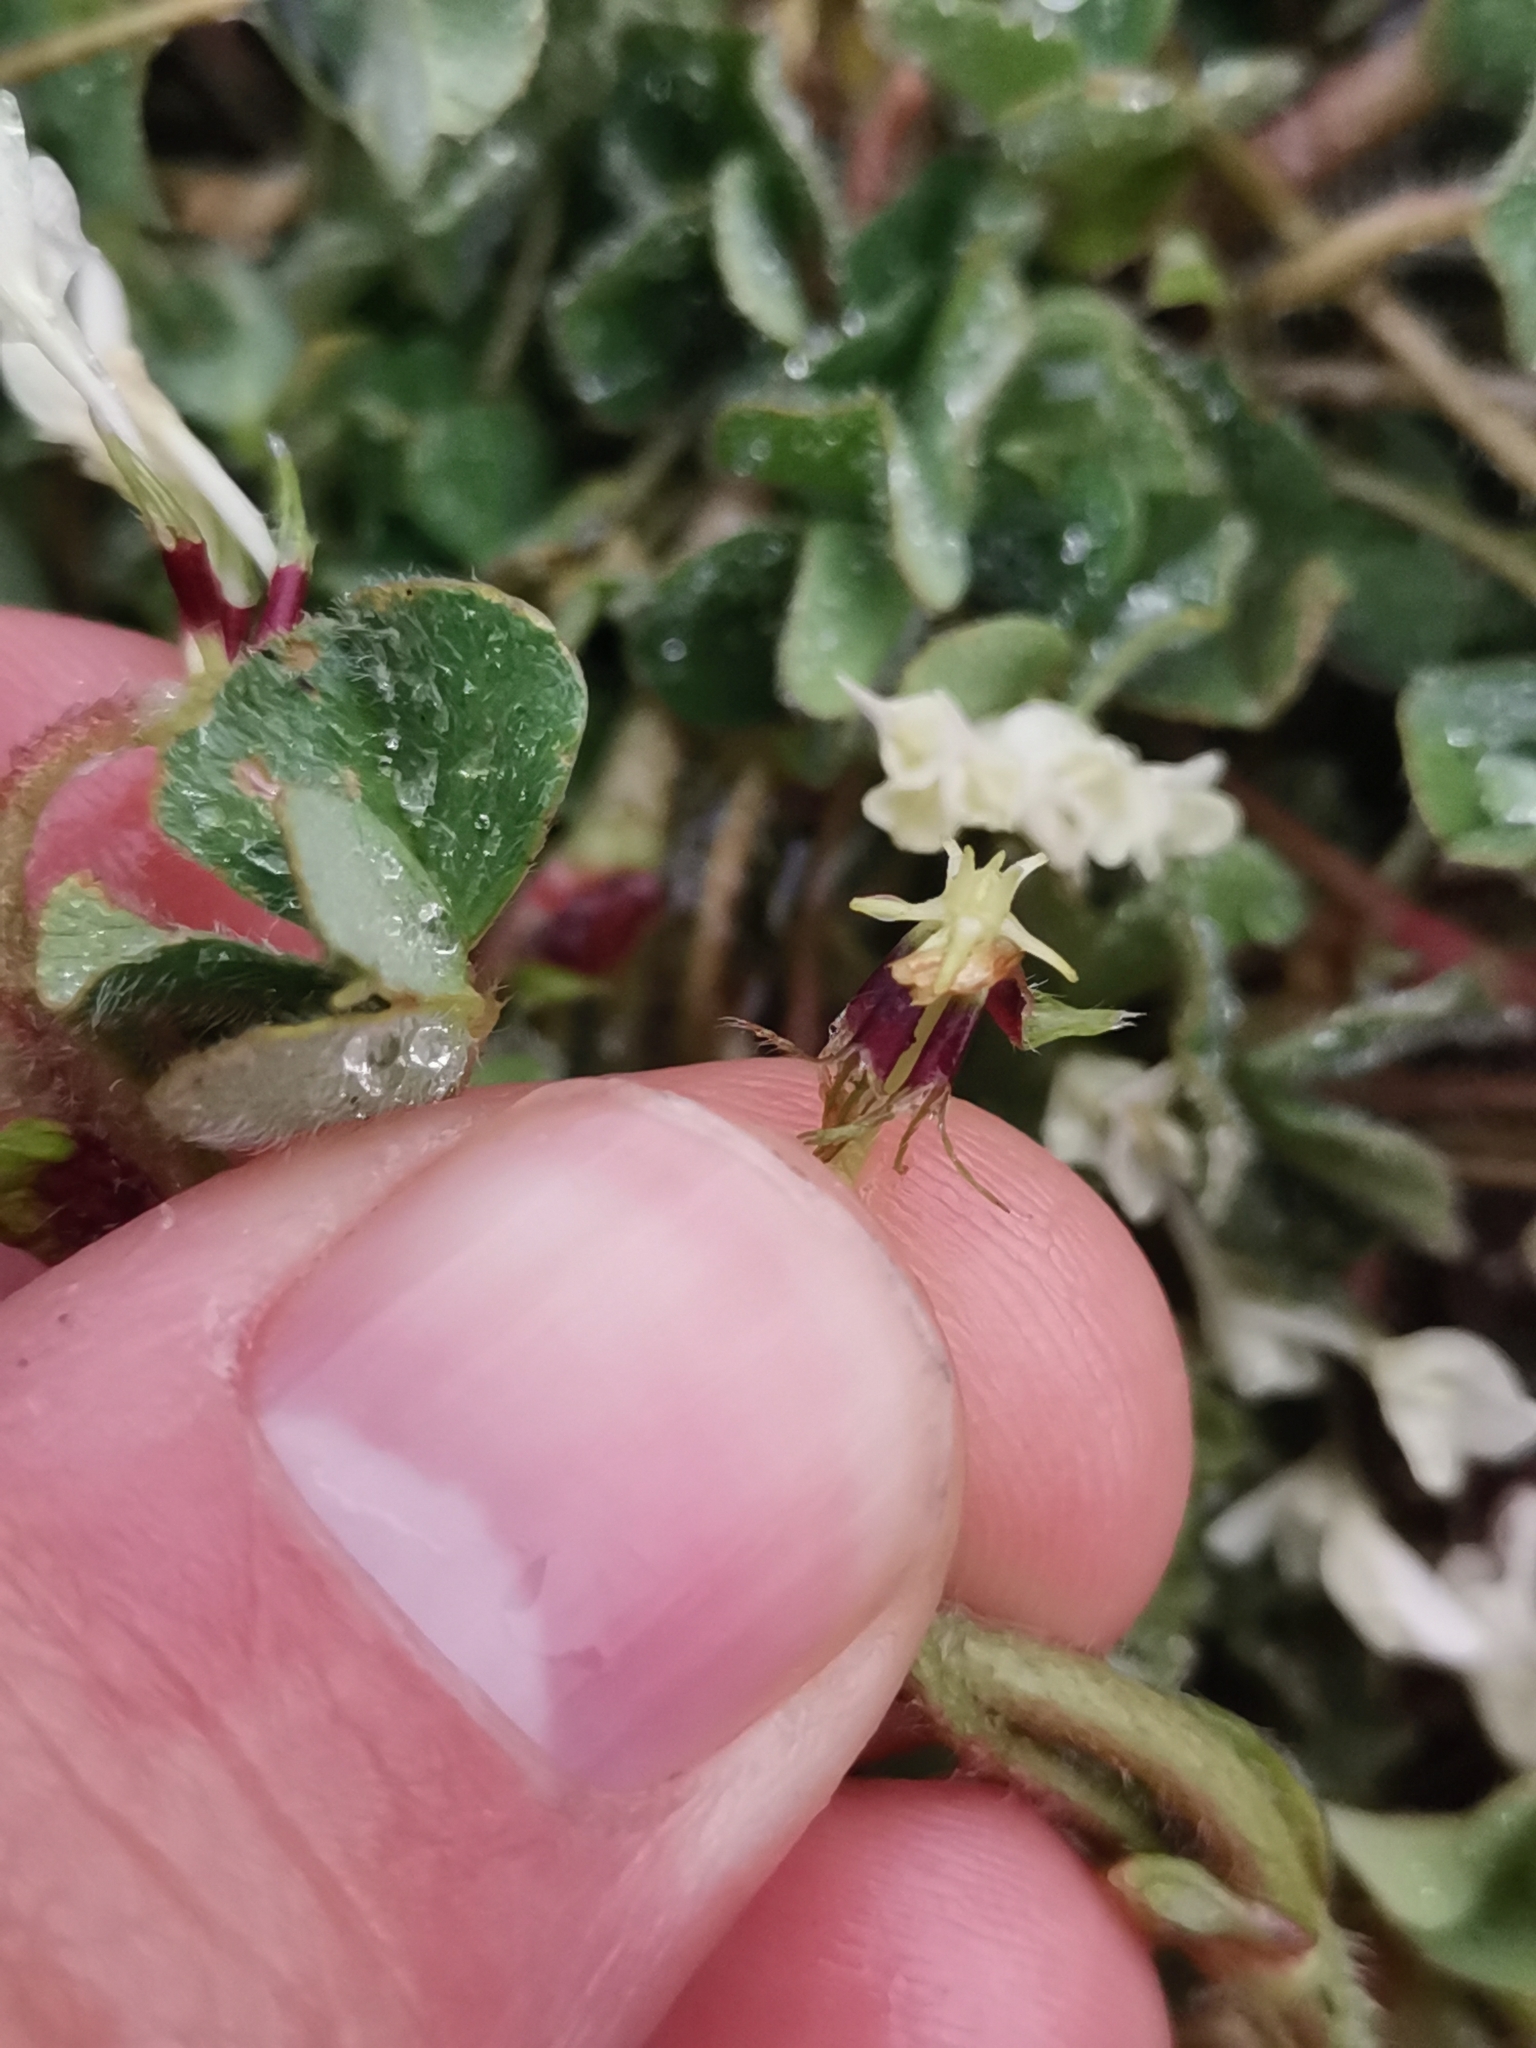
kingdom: Plantae
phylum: Tracheophyta
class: Magnoliopsida
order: Fabales
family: Fabaceae
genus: Trifolium
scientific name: Trifolium subterraneum
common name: Subterranean clover
